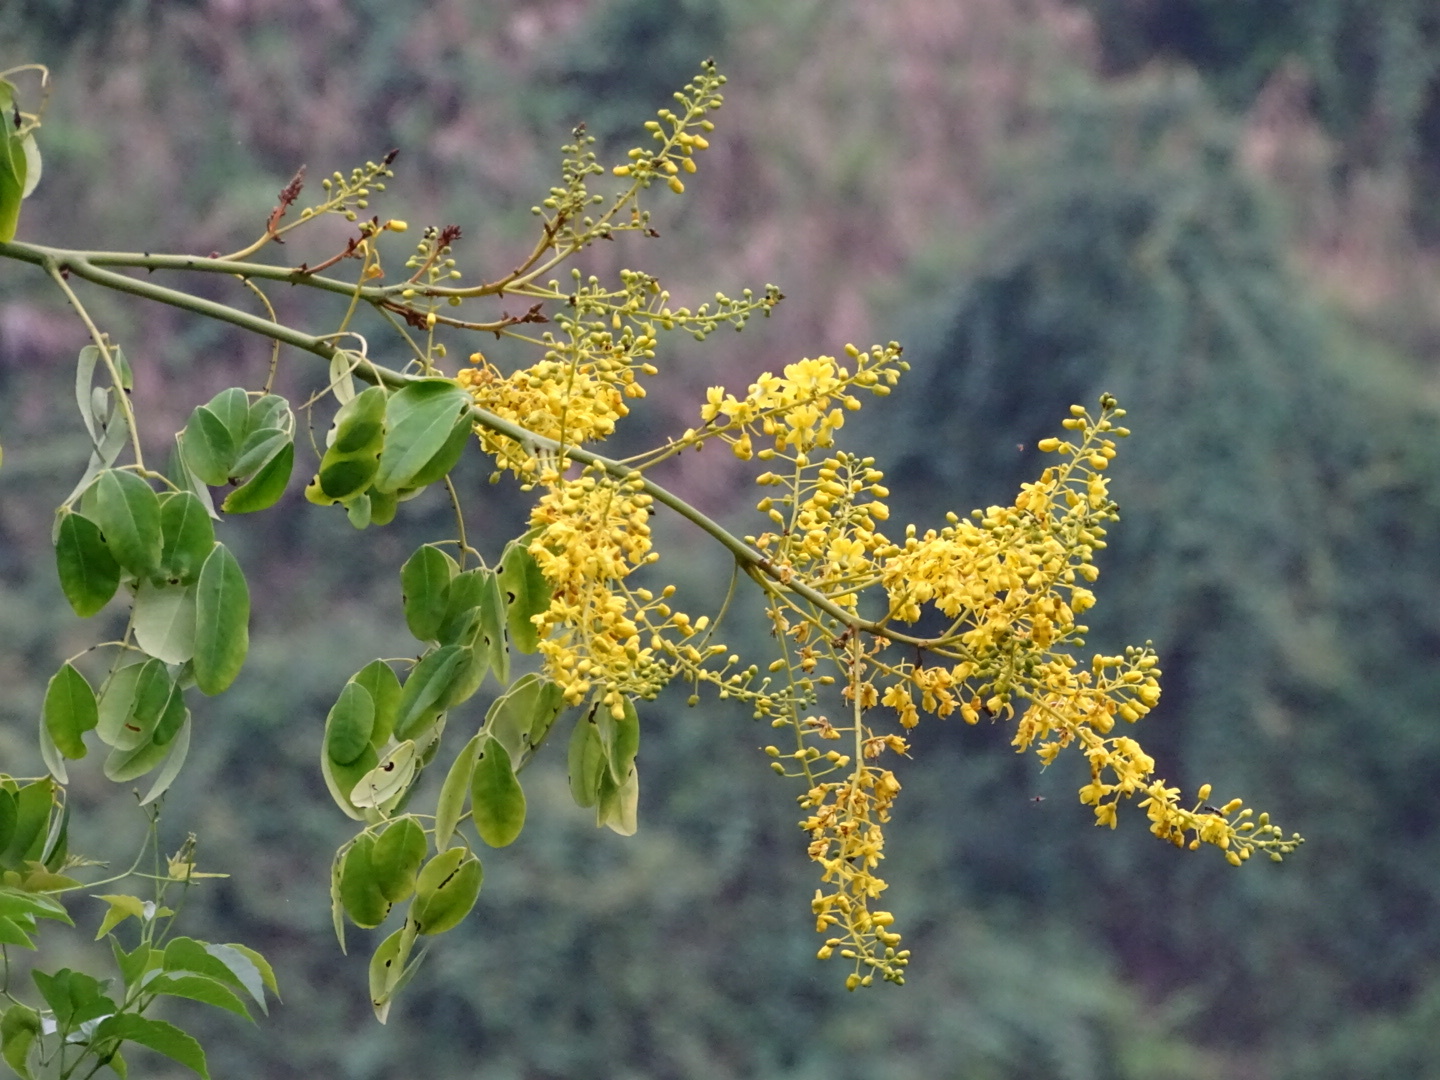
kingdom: Plantae
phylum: Tracheophyta
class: Magnoliopsida
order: Fabales
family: Fabaceae
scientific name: Fabaceae
